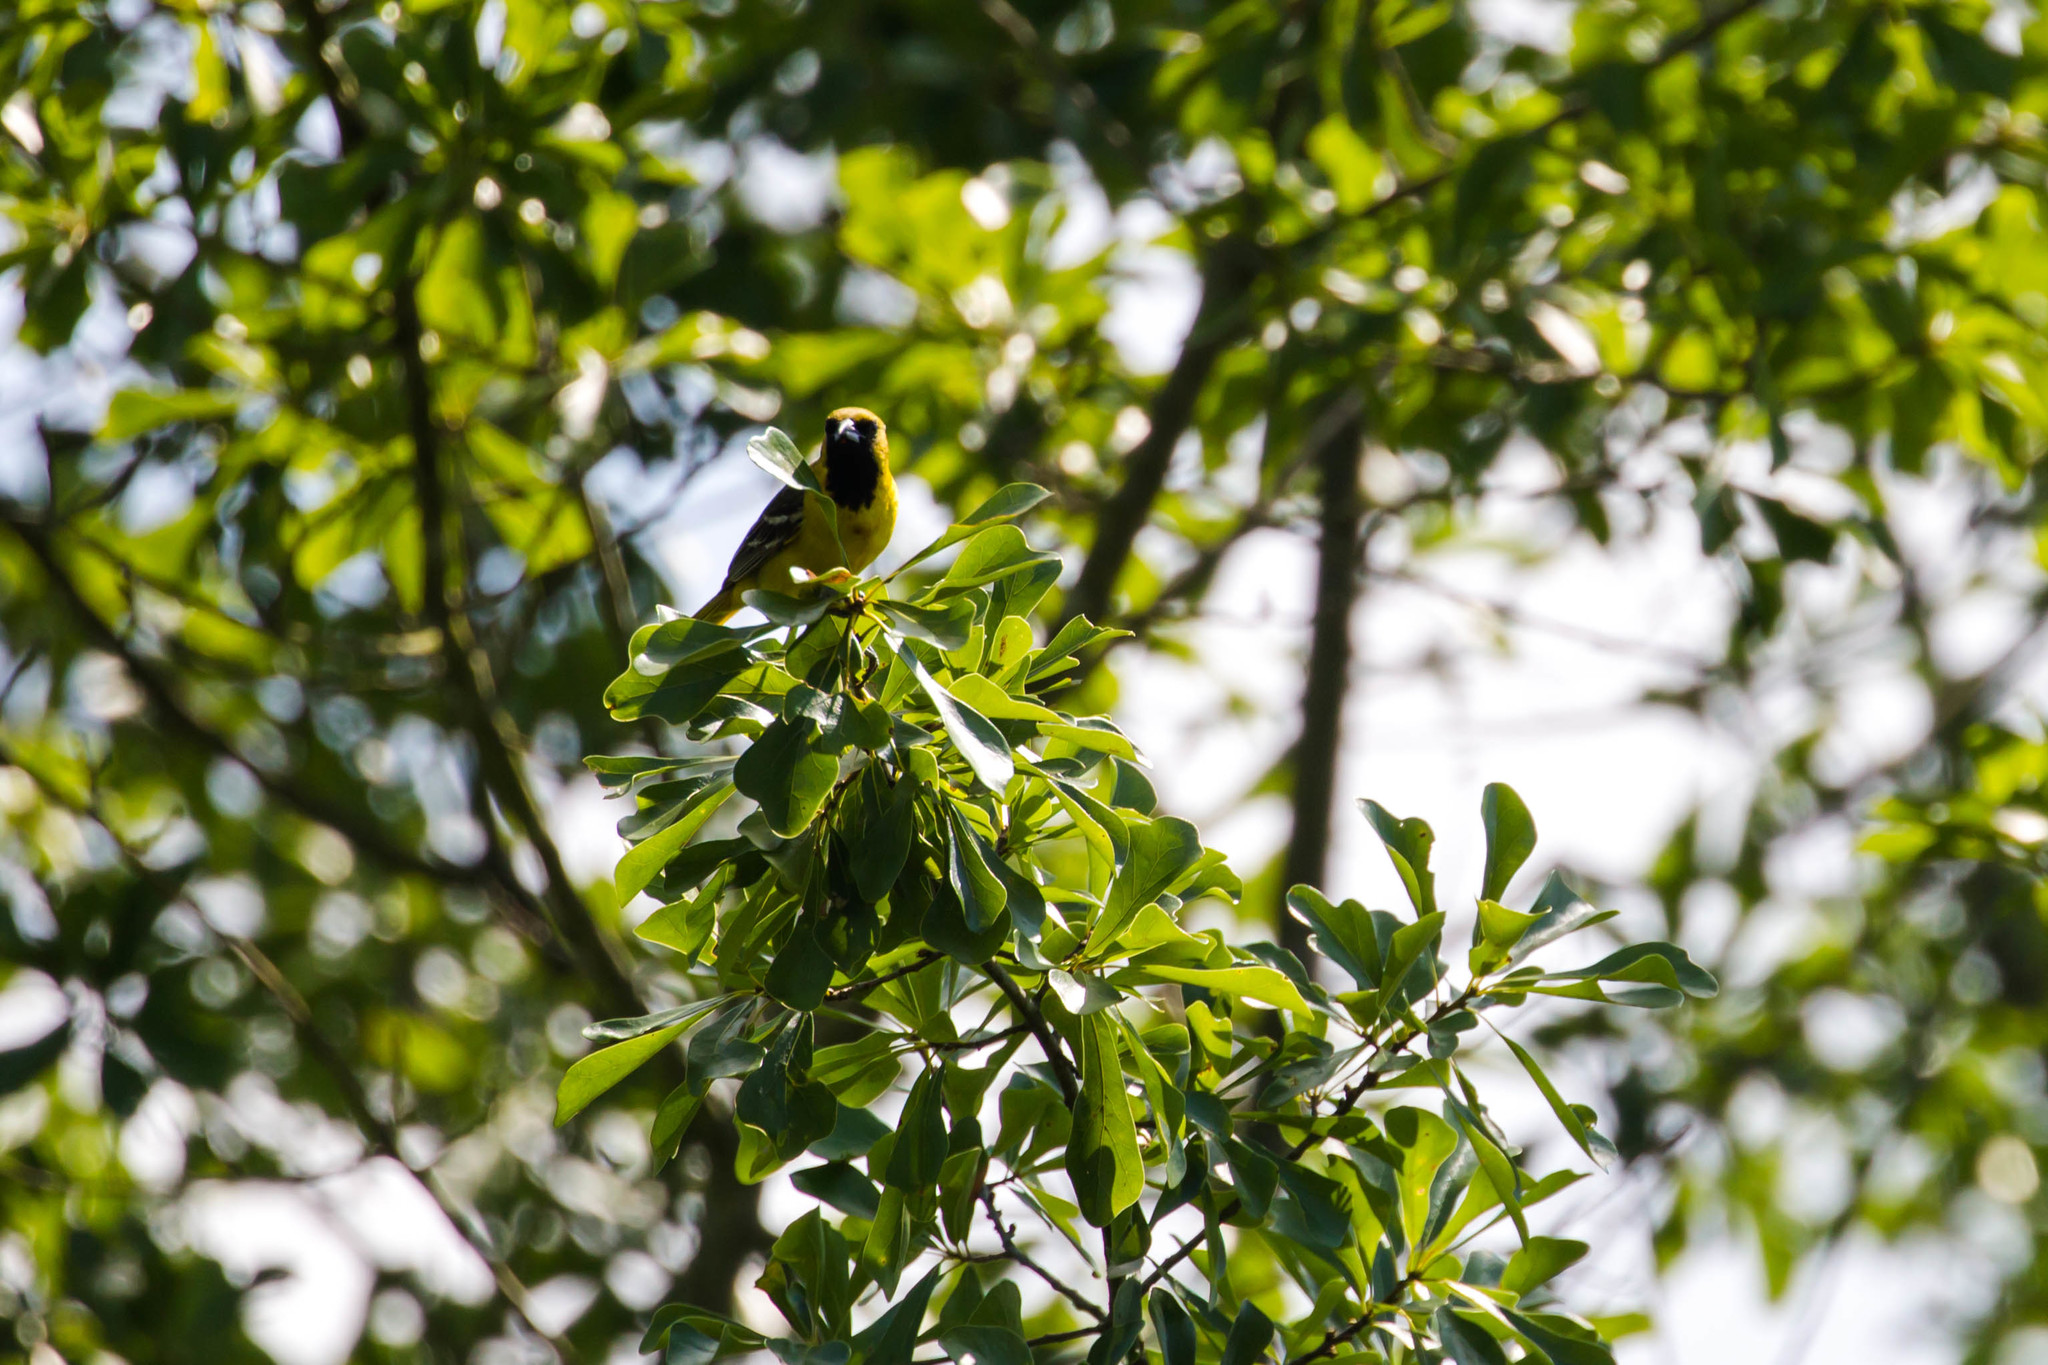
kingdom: Animalia
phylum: Chordata
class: Aves
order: Passeriformes
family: Icteridae
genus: Icterus
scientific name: Icterus spurius
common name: Orchard oriole
